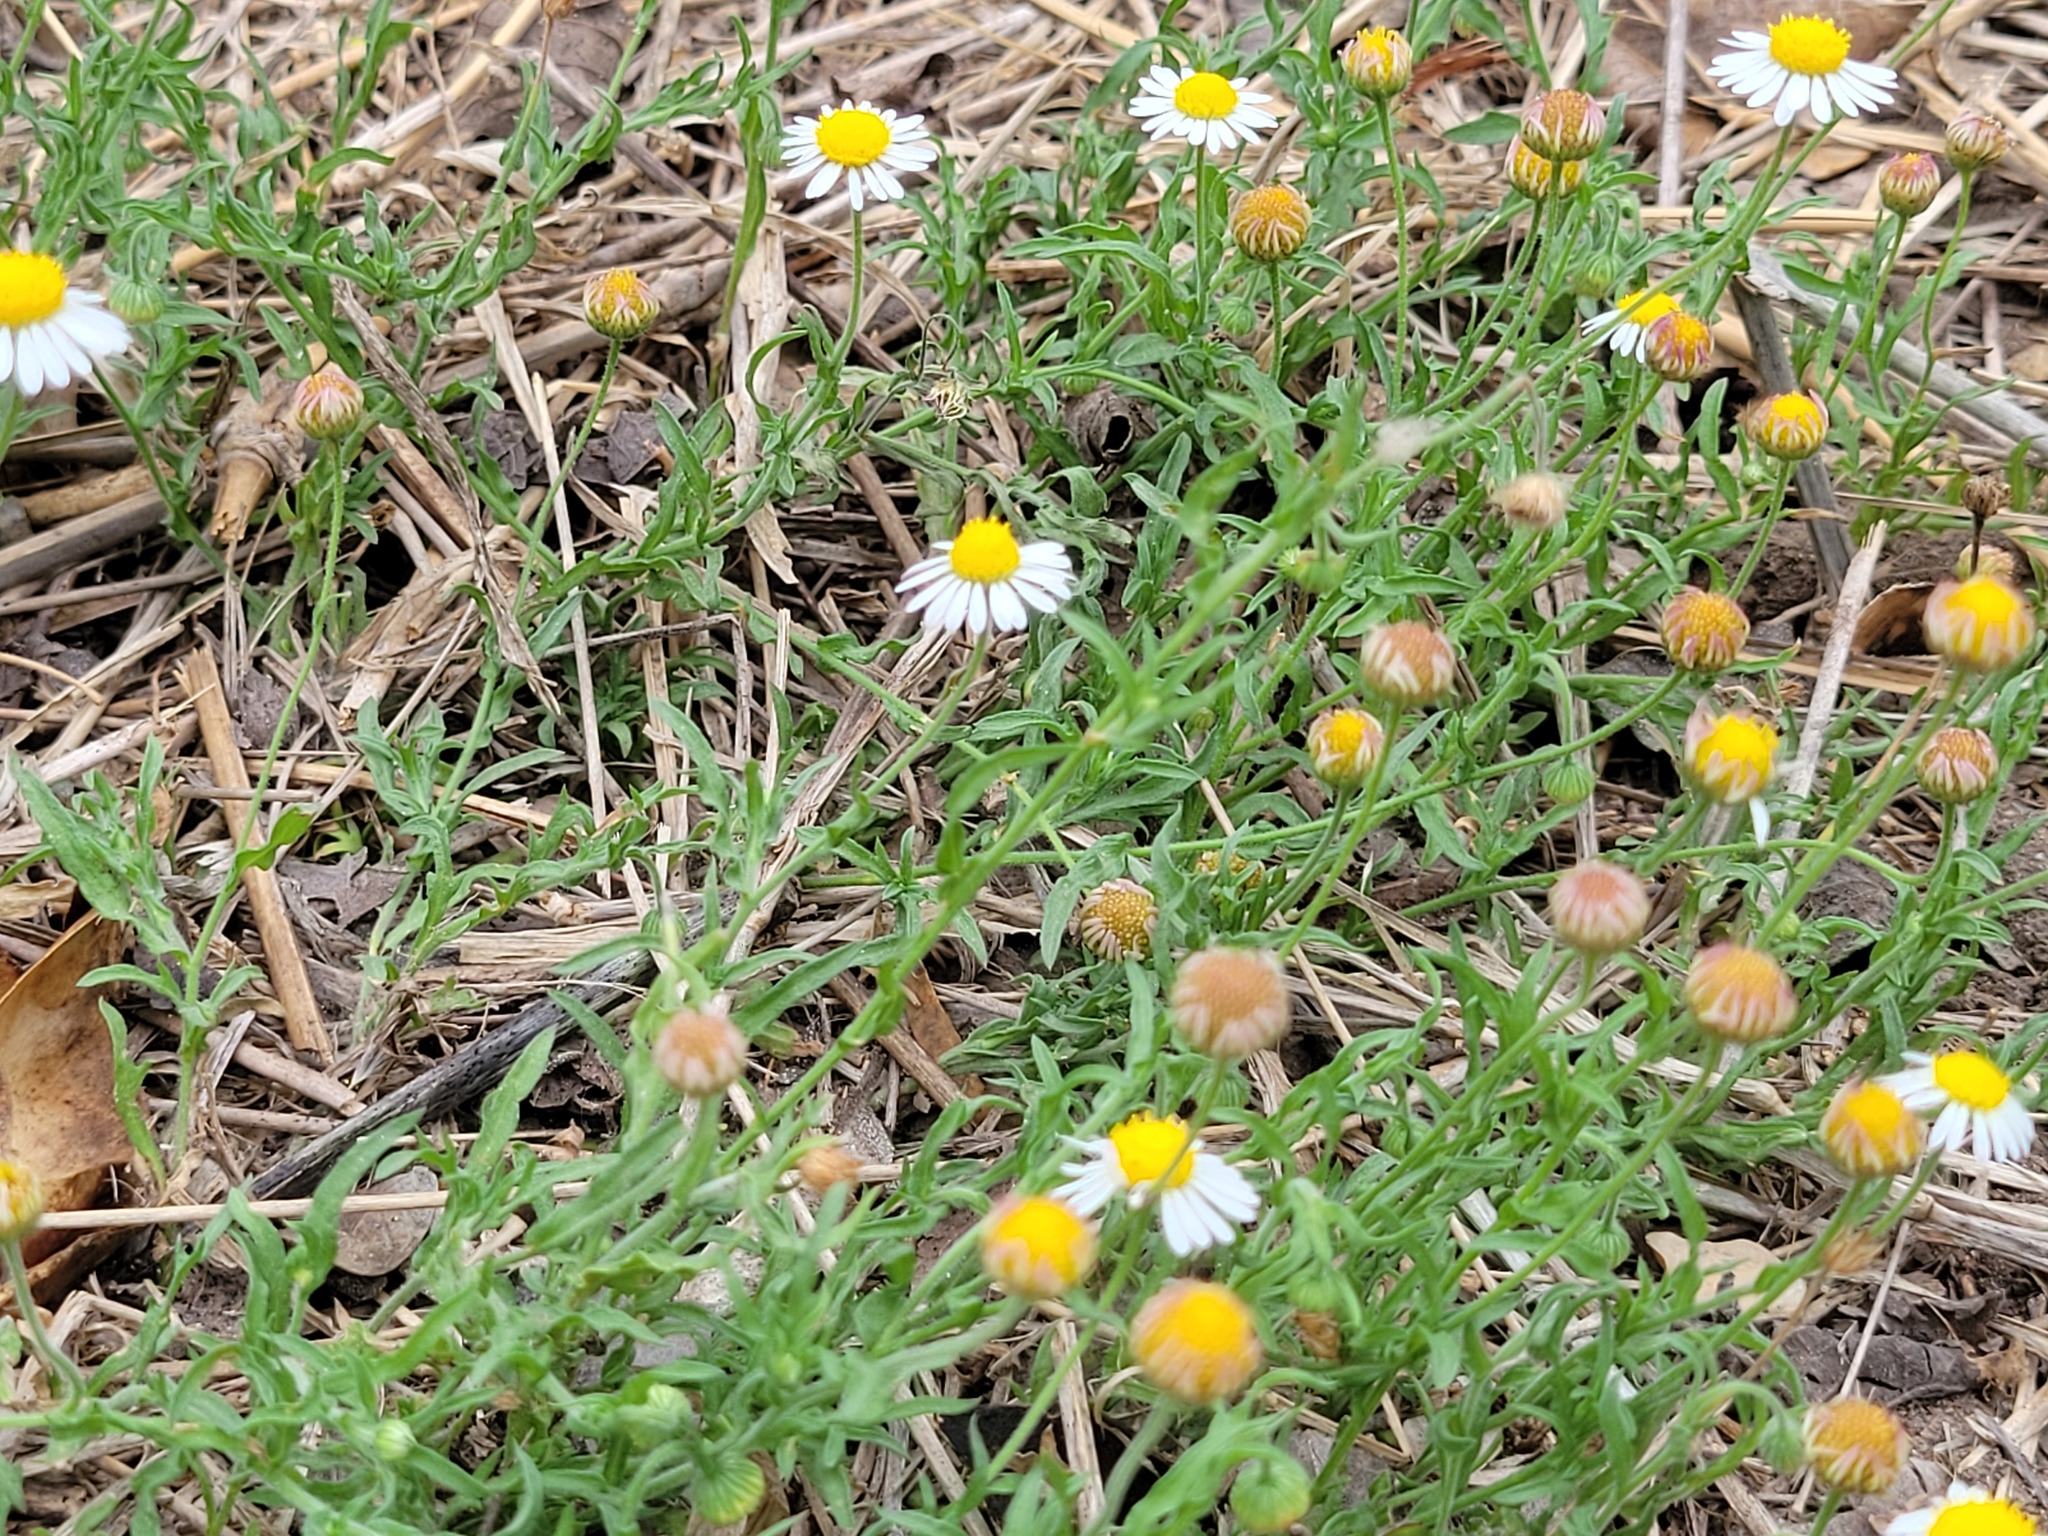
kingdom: Plantae
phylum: Tracheophyta
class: Magnoliopsida
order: Asterales
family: Asteraceae
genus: Aphanostephus
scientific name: Aphanostephus ramosissimus
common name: Plains lazy daisy
